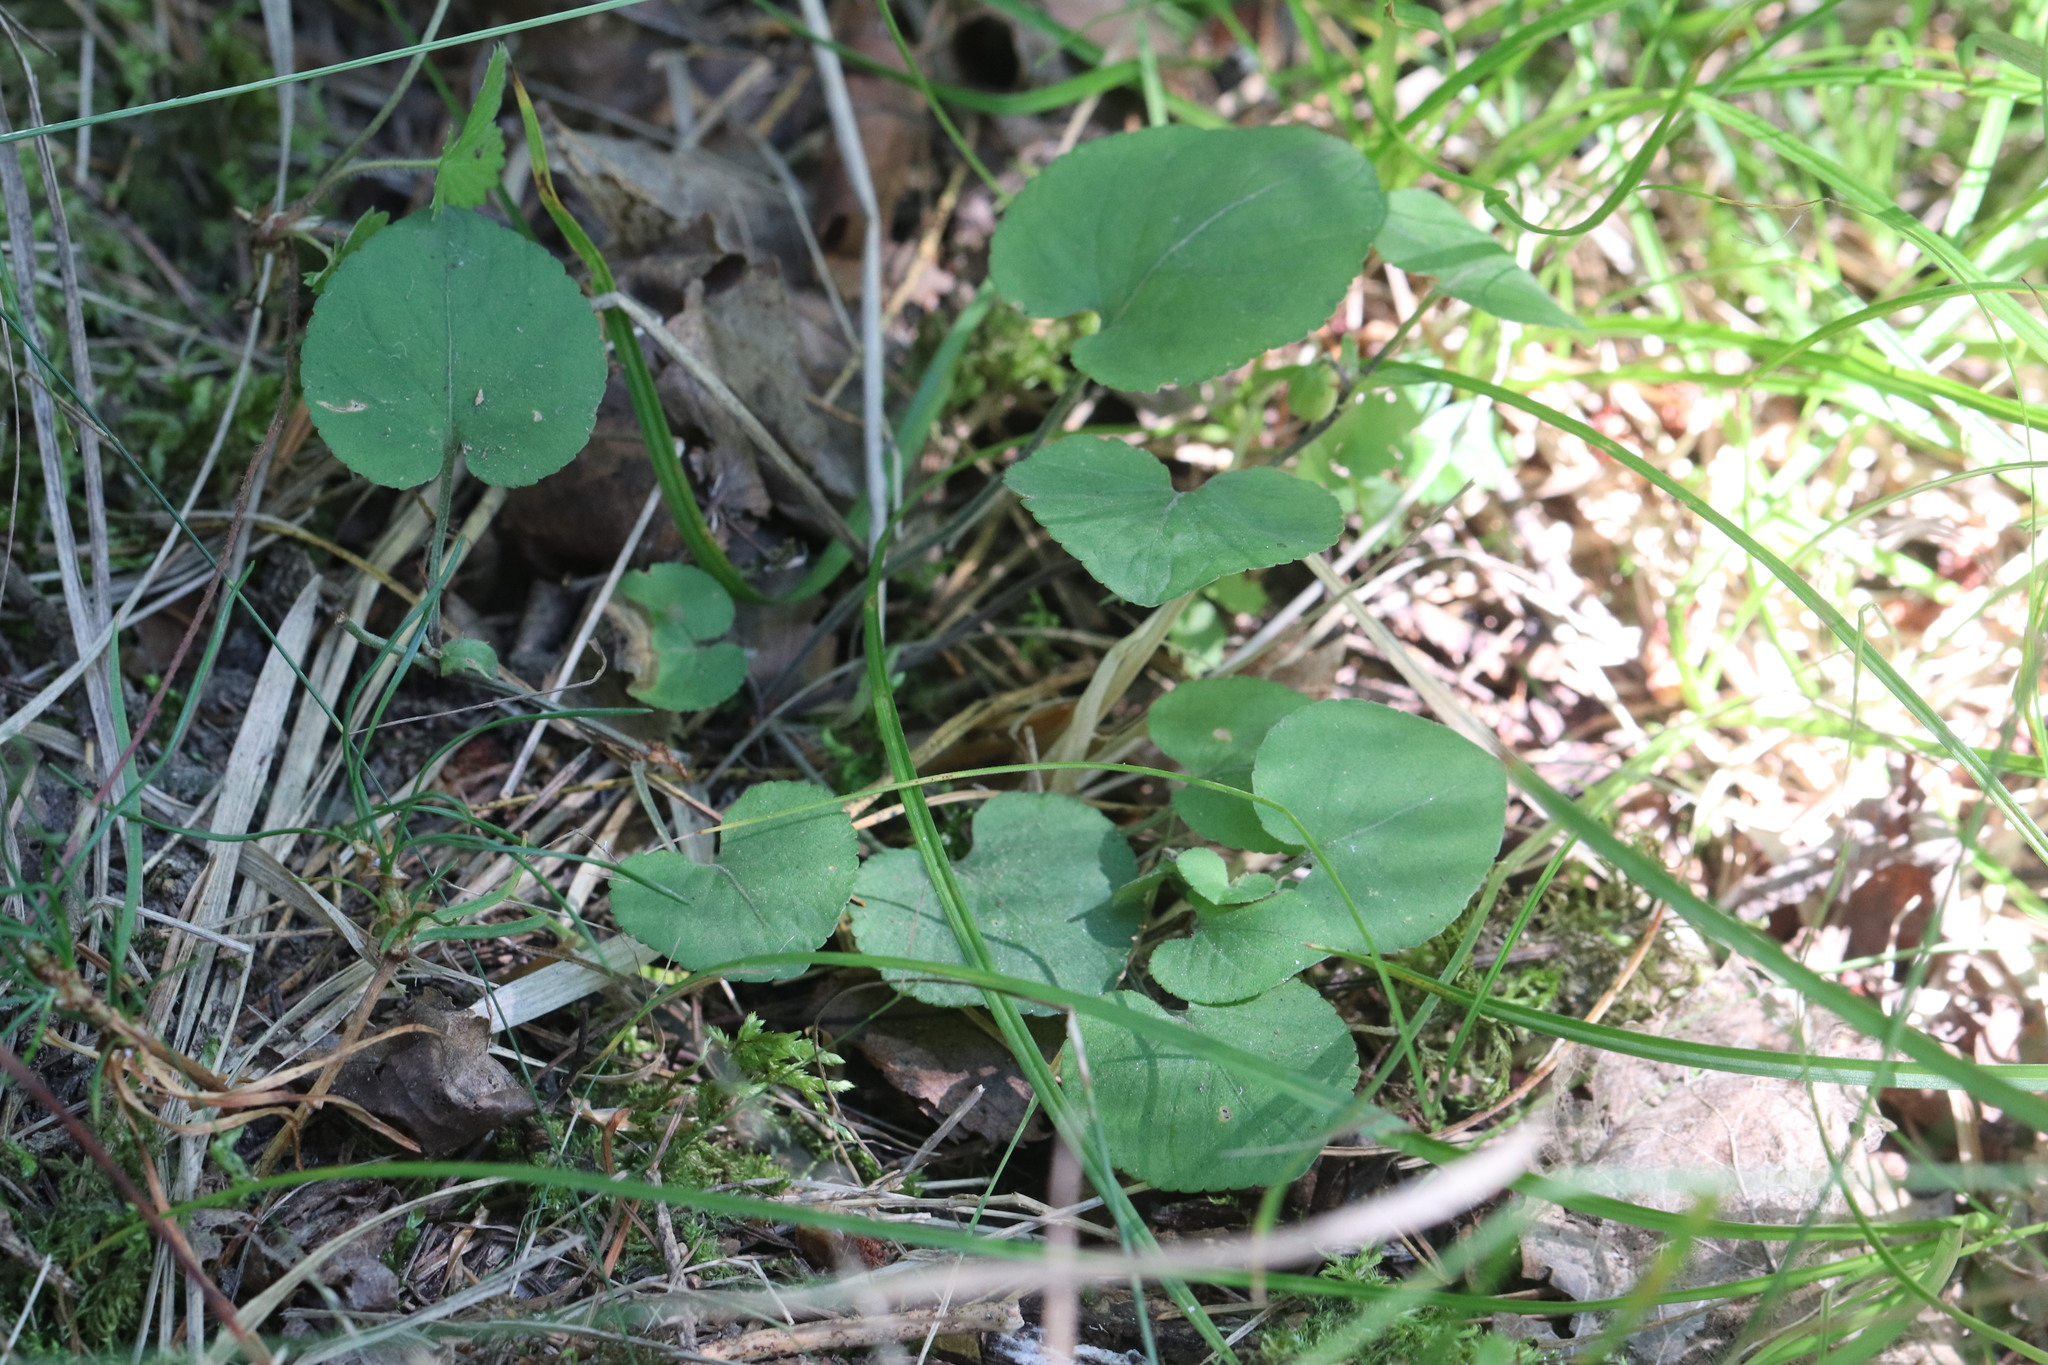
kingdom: Plantae
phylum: Tracheophyta
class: Magnoliopsida
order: Malpighiales
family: Violaceae
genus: Viola
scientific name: Viola rupestris
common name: Teesdale violet
